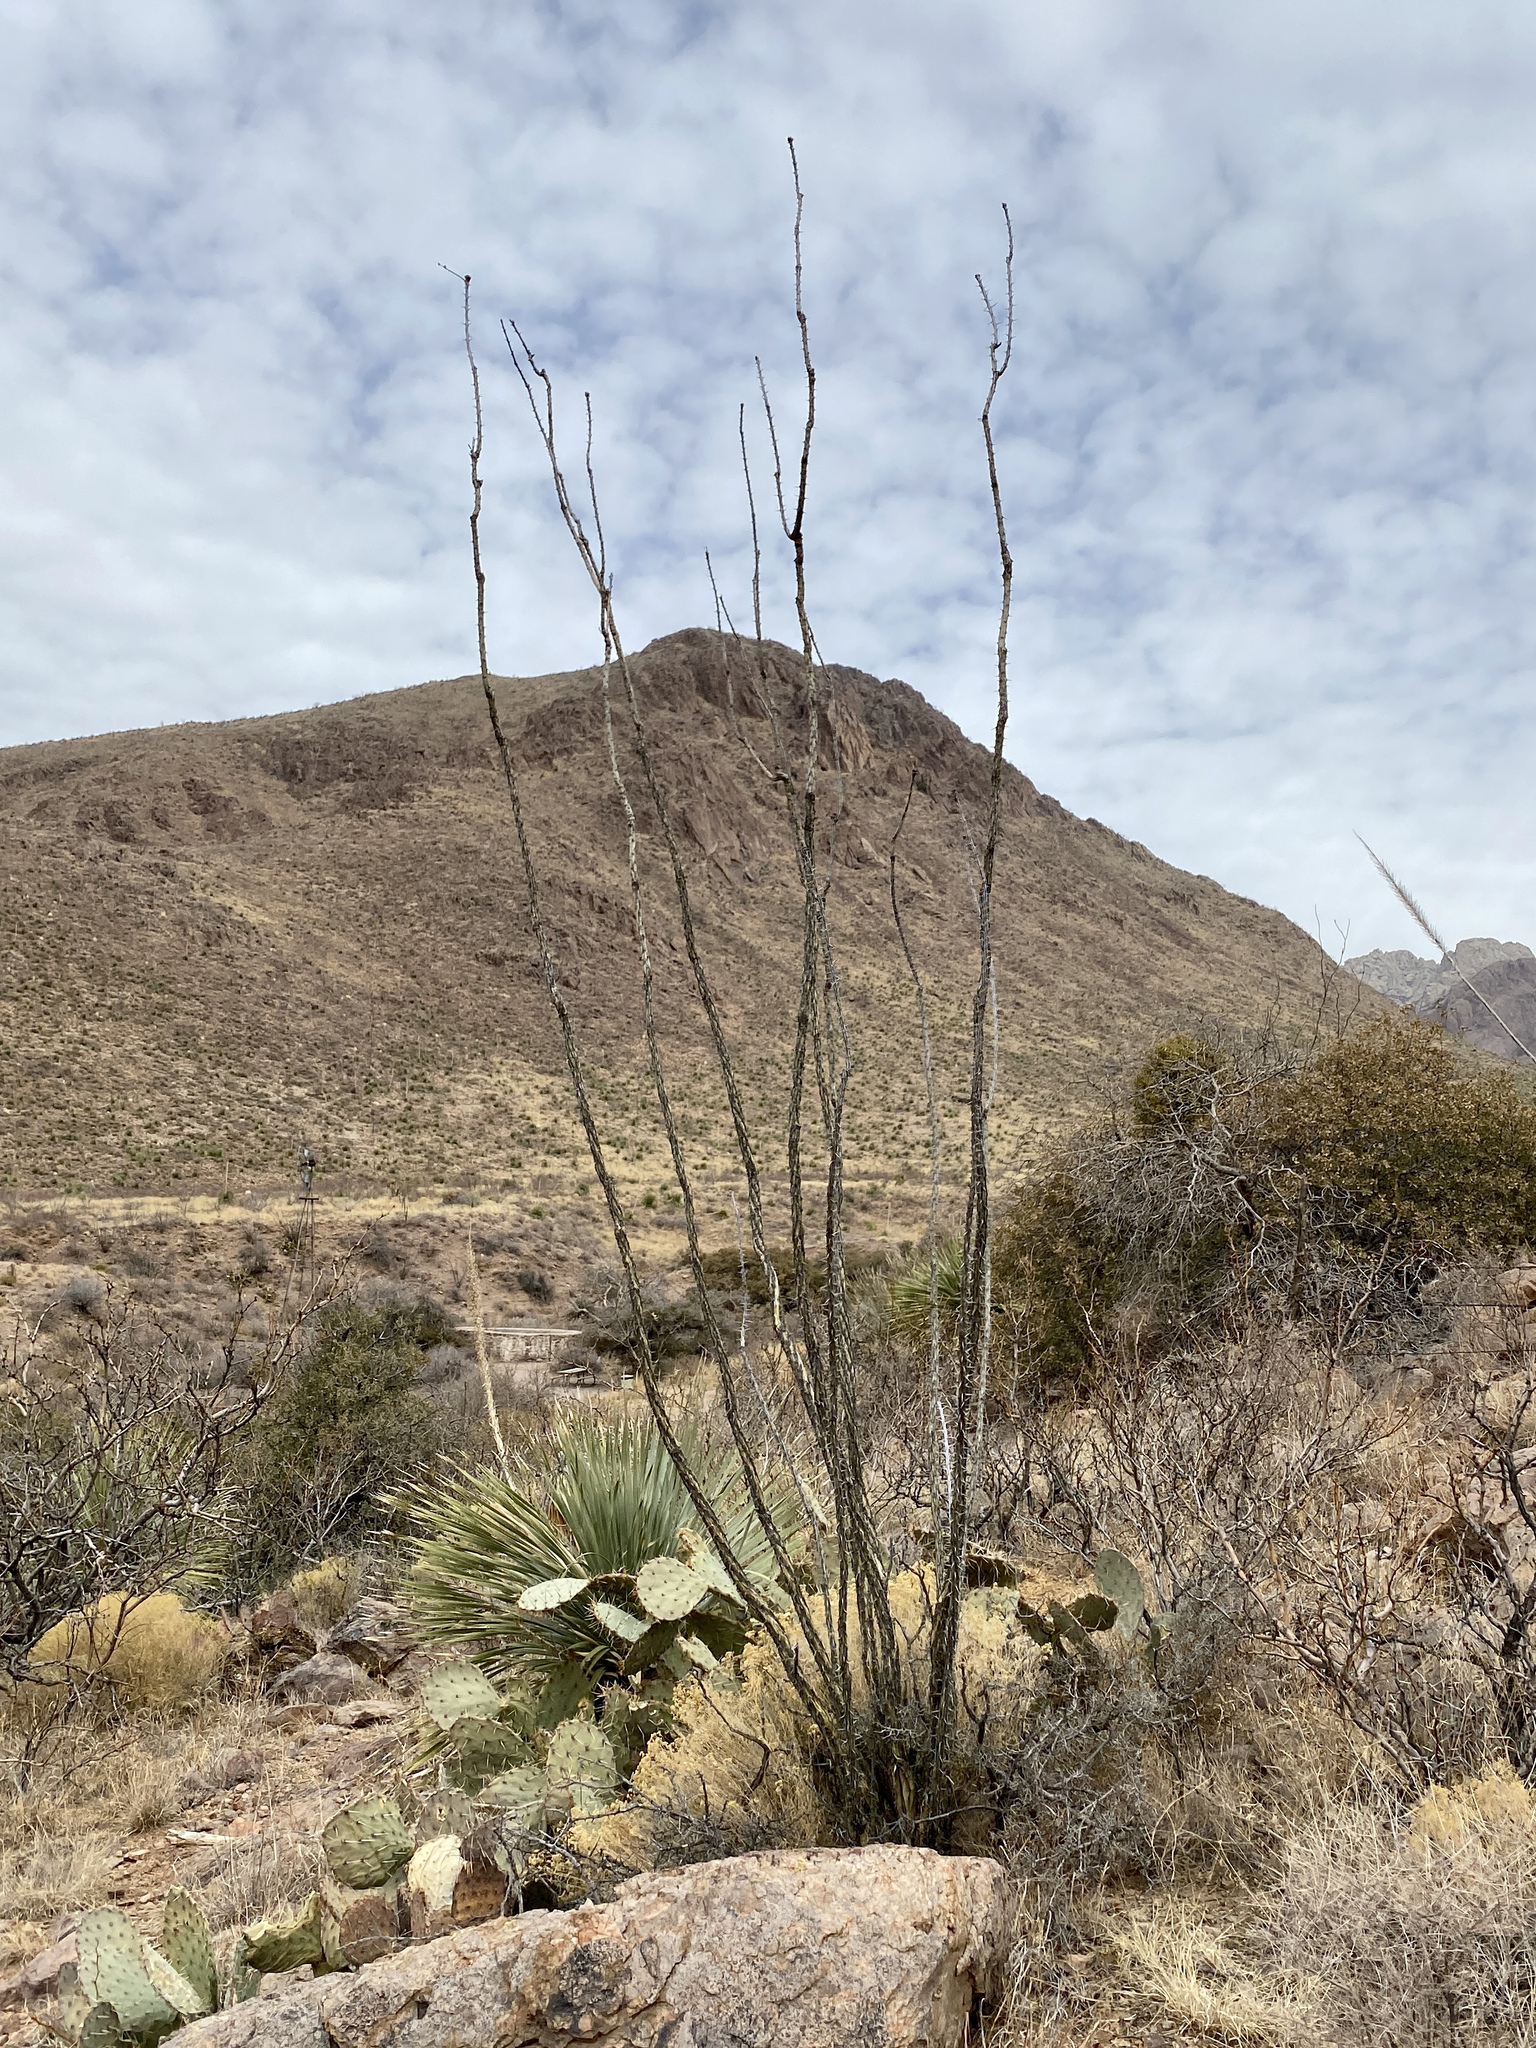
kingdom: Plantae
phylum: Tracheophyta
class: Magnoliopsida
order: Ericales
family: Fouquieriaceae
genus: Fouquieria
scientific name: Fouquieria splendens
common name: Vine-cactus
